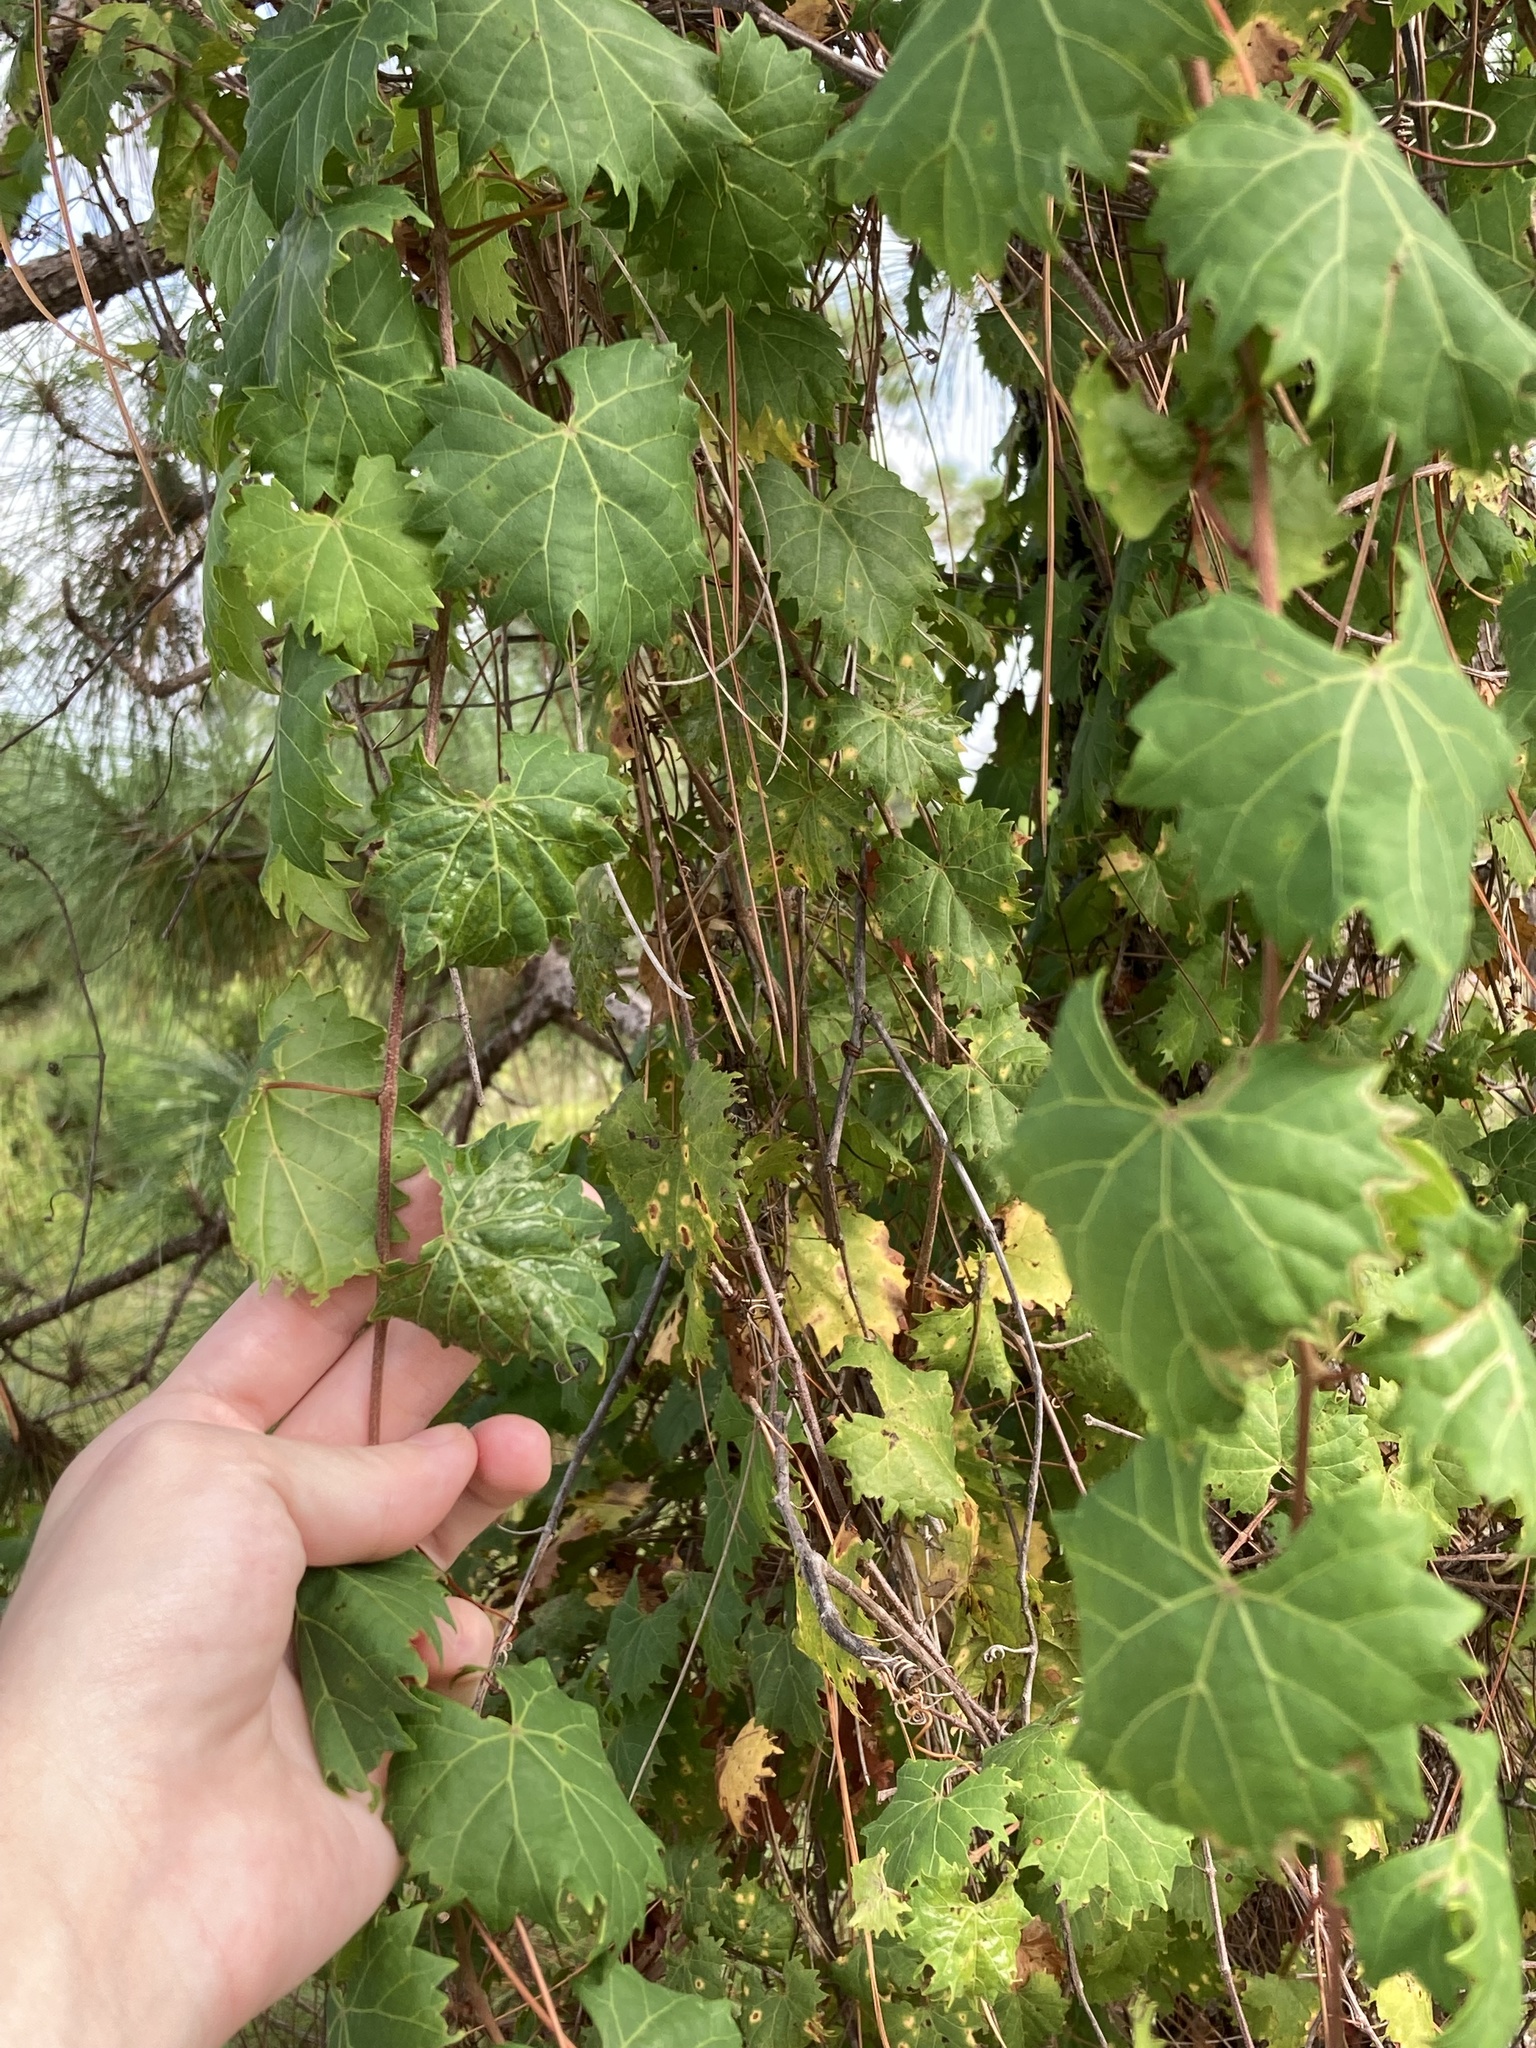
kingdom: Plantae
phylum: Tracheophyta
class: Magnoliopsida
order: Vitales
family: Vitaceae
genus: Vitis
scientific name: Vitis rotundifolia
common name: Muscadine grape
